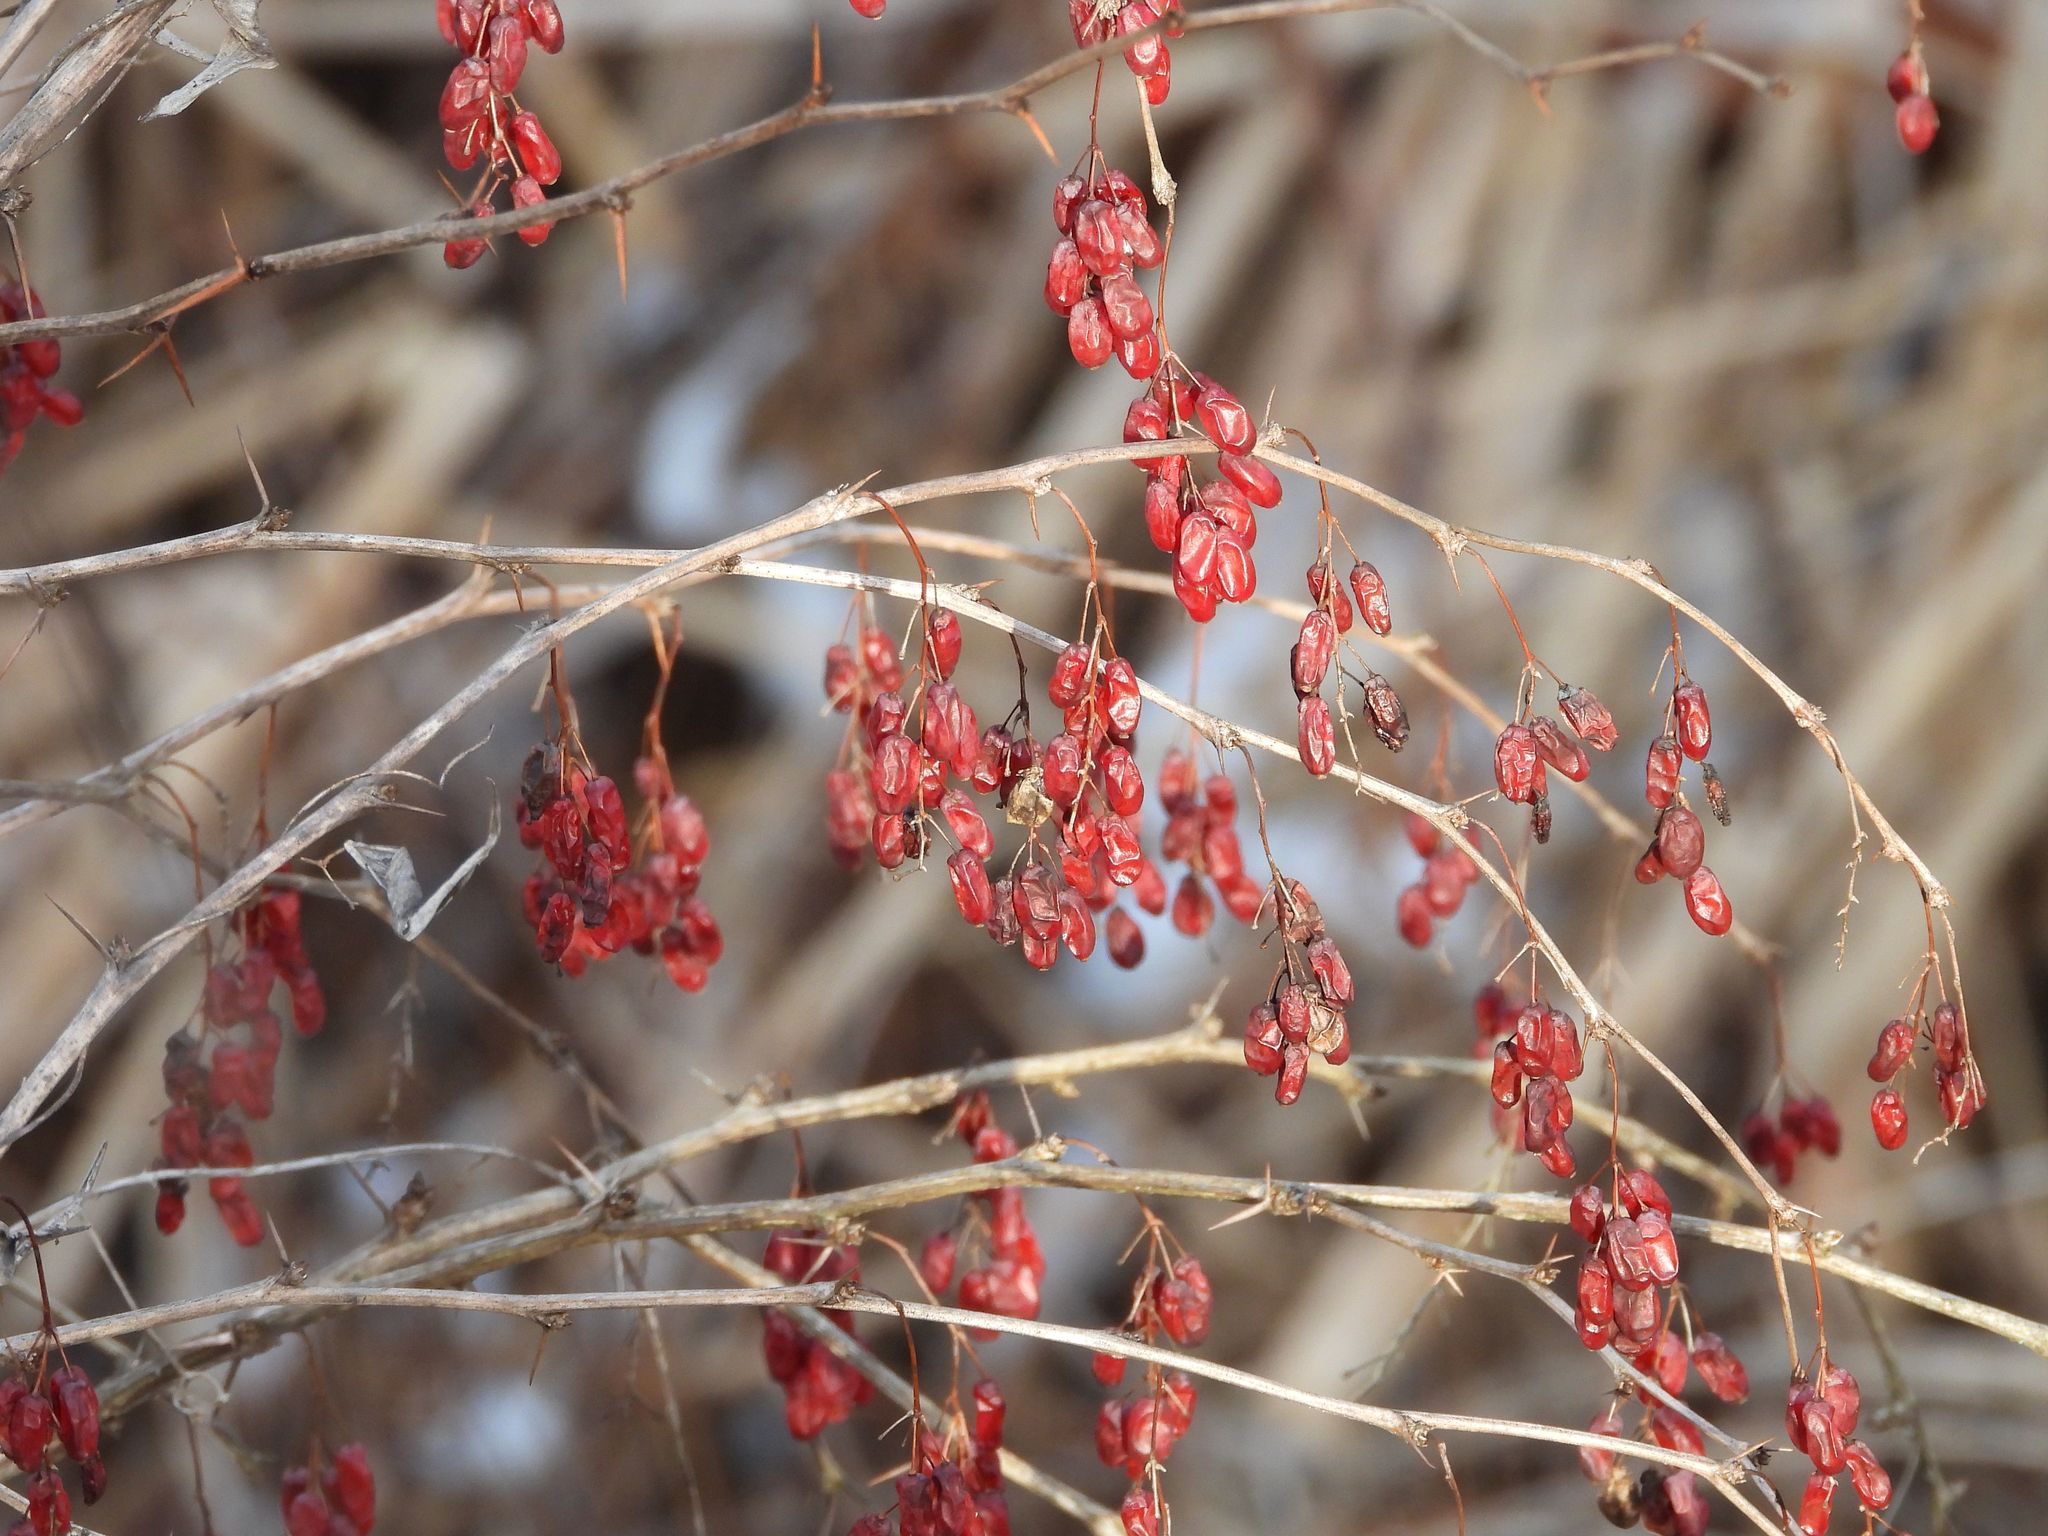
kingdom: Plantae
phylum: Tracheophyta
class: Magnoliopsida
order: Ranunculales
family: Berberidaceae
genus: Berberis
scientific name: Berberis vulgaris
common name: Barberry
